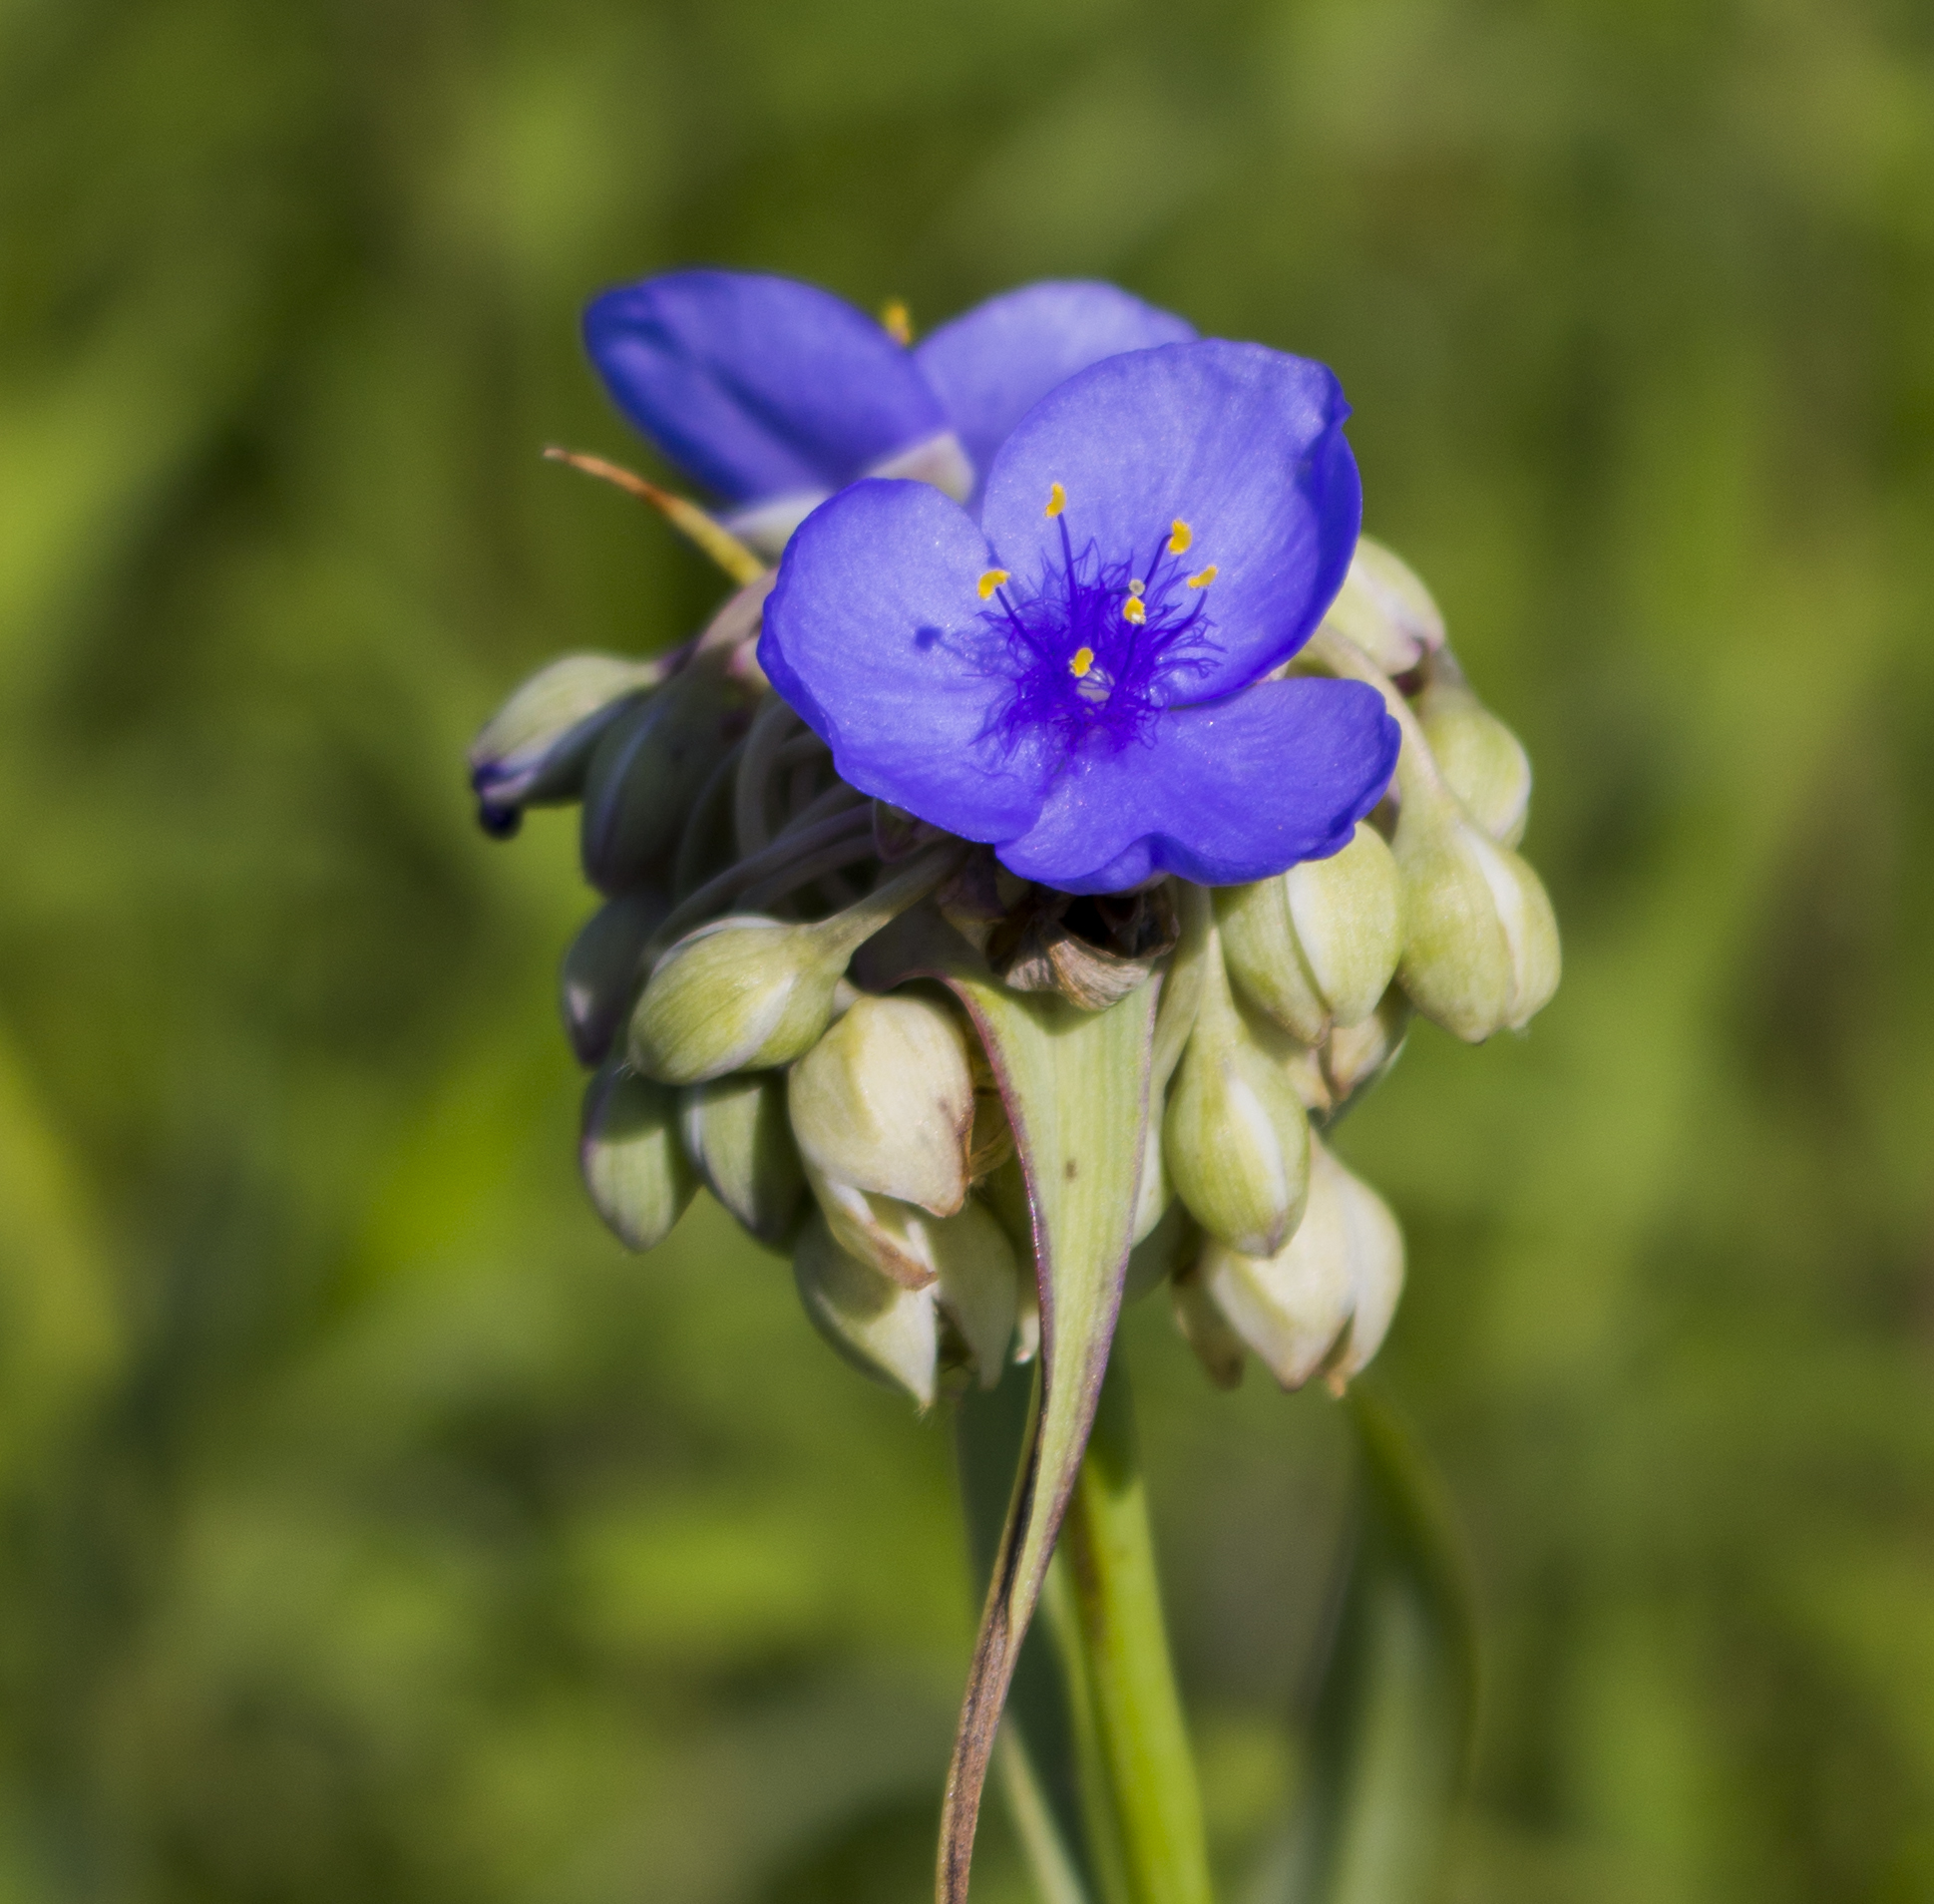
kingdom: Plantae
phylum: Tracheophyta
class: Liliopsida
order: Commelinales
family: Commelinaceae
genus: Tradescantia
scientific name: Tradescantia ohiensis
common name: Ohio spiderwort
